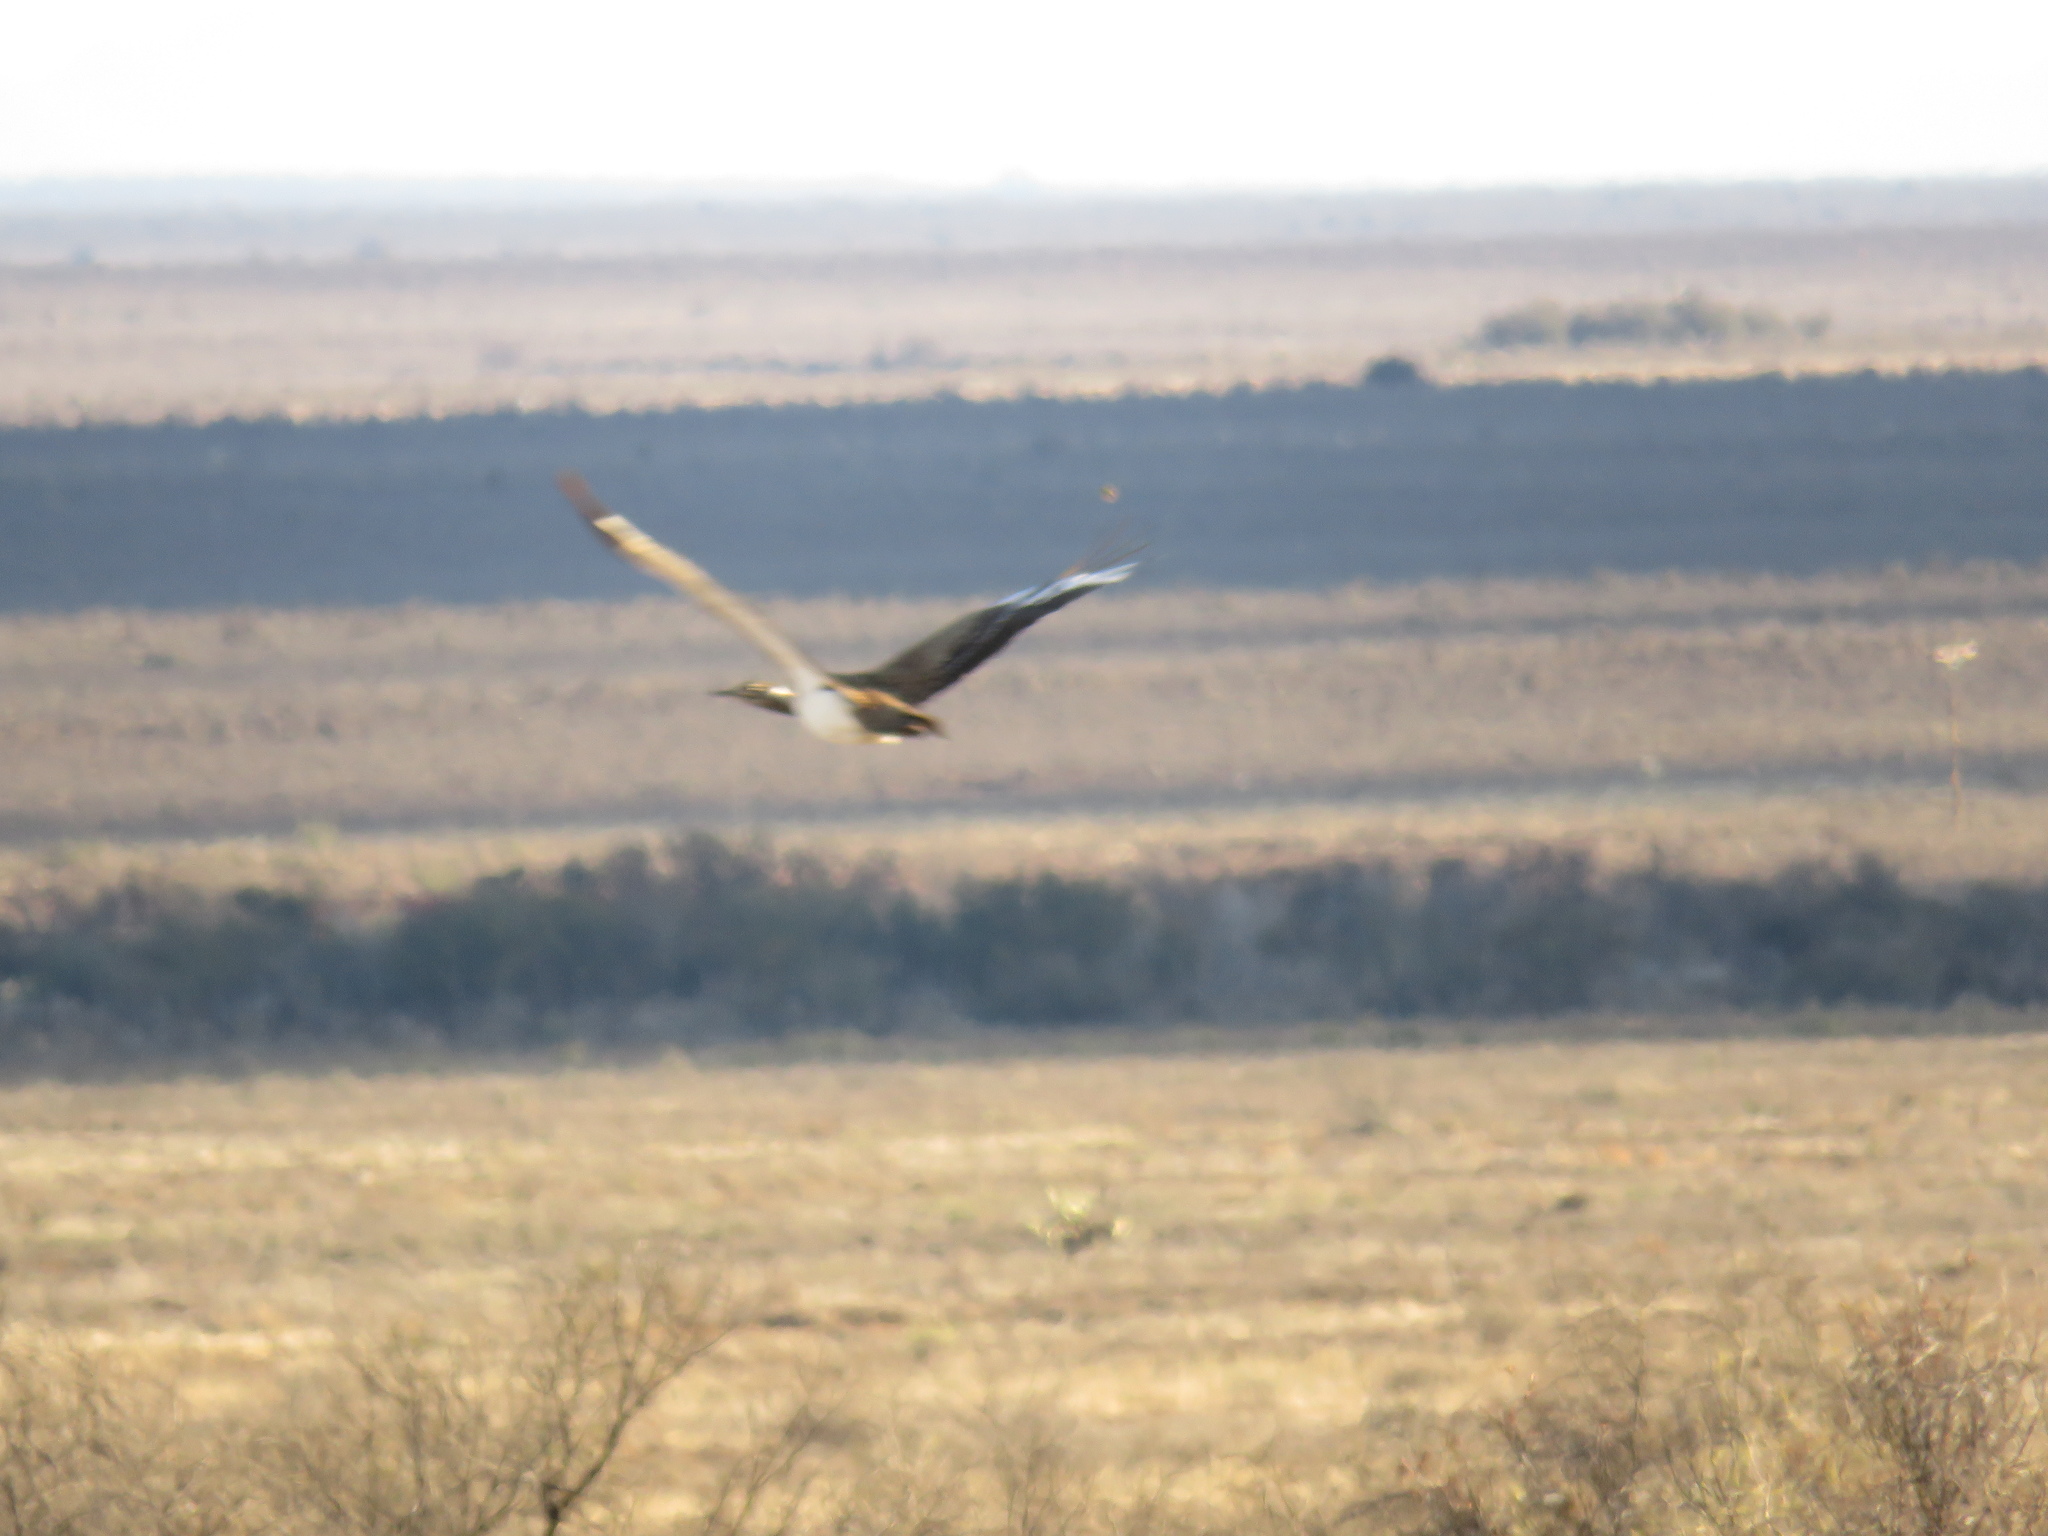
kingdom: Animalia
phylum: Chordata
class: Aves
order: Otidiformes
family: Otididae
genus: Neotis
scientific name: Neotis ludwigii
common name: Ludwig's bustard
